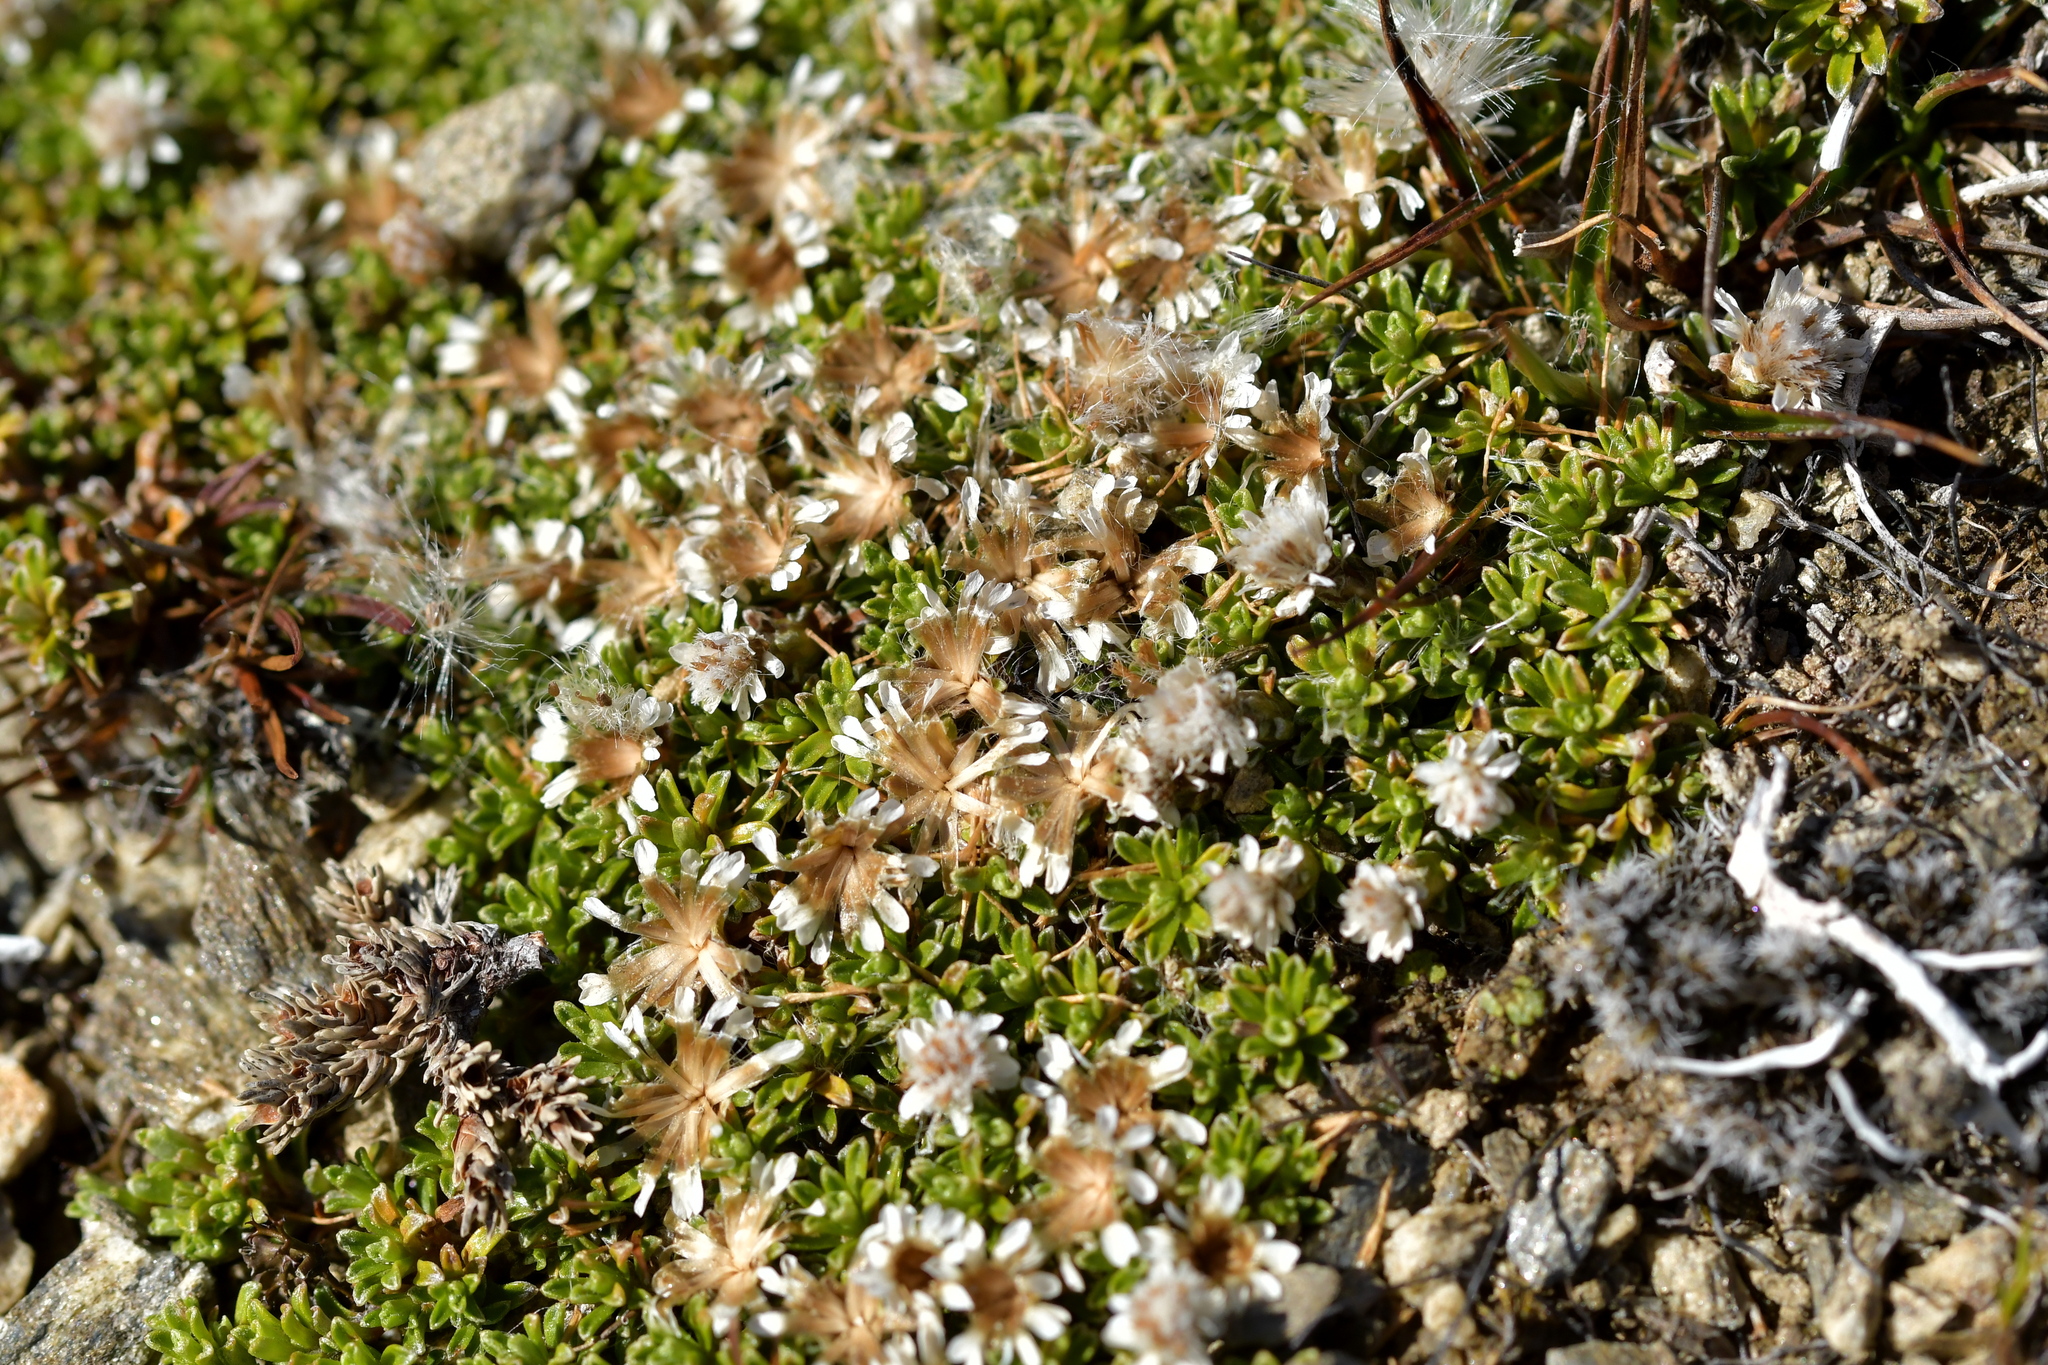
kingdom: Plantae
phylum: Tracheophyta
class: Magnoliopsida
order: Asterales
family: Asteraceae
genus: Raoulia
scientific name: Raoulia subsericea
